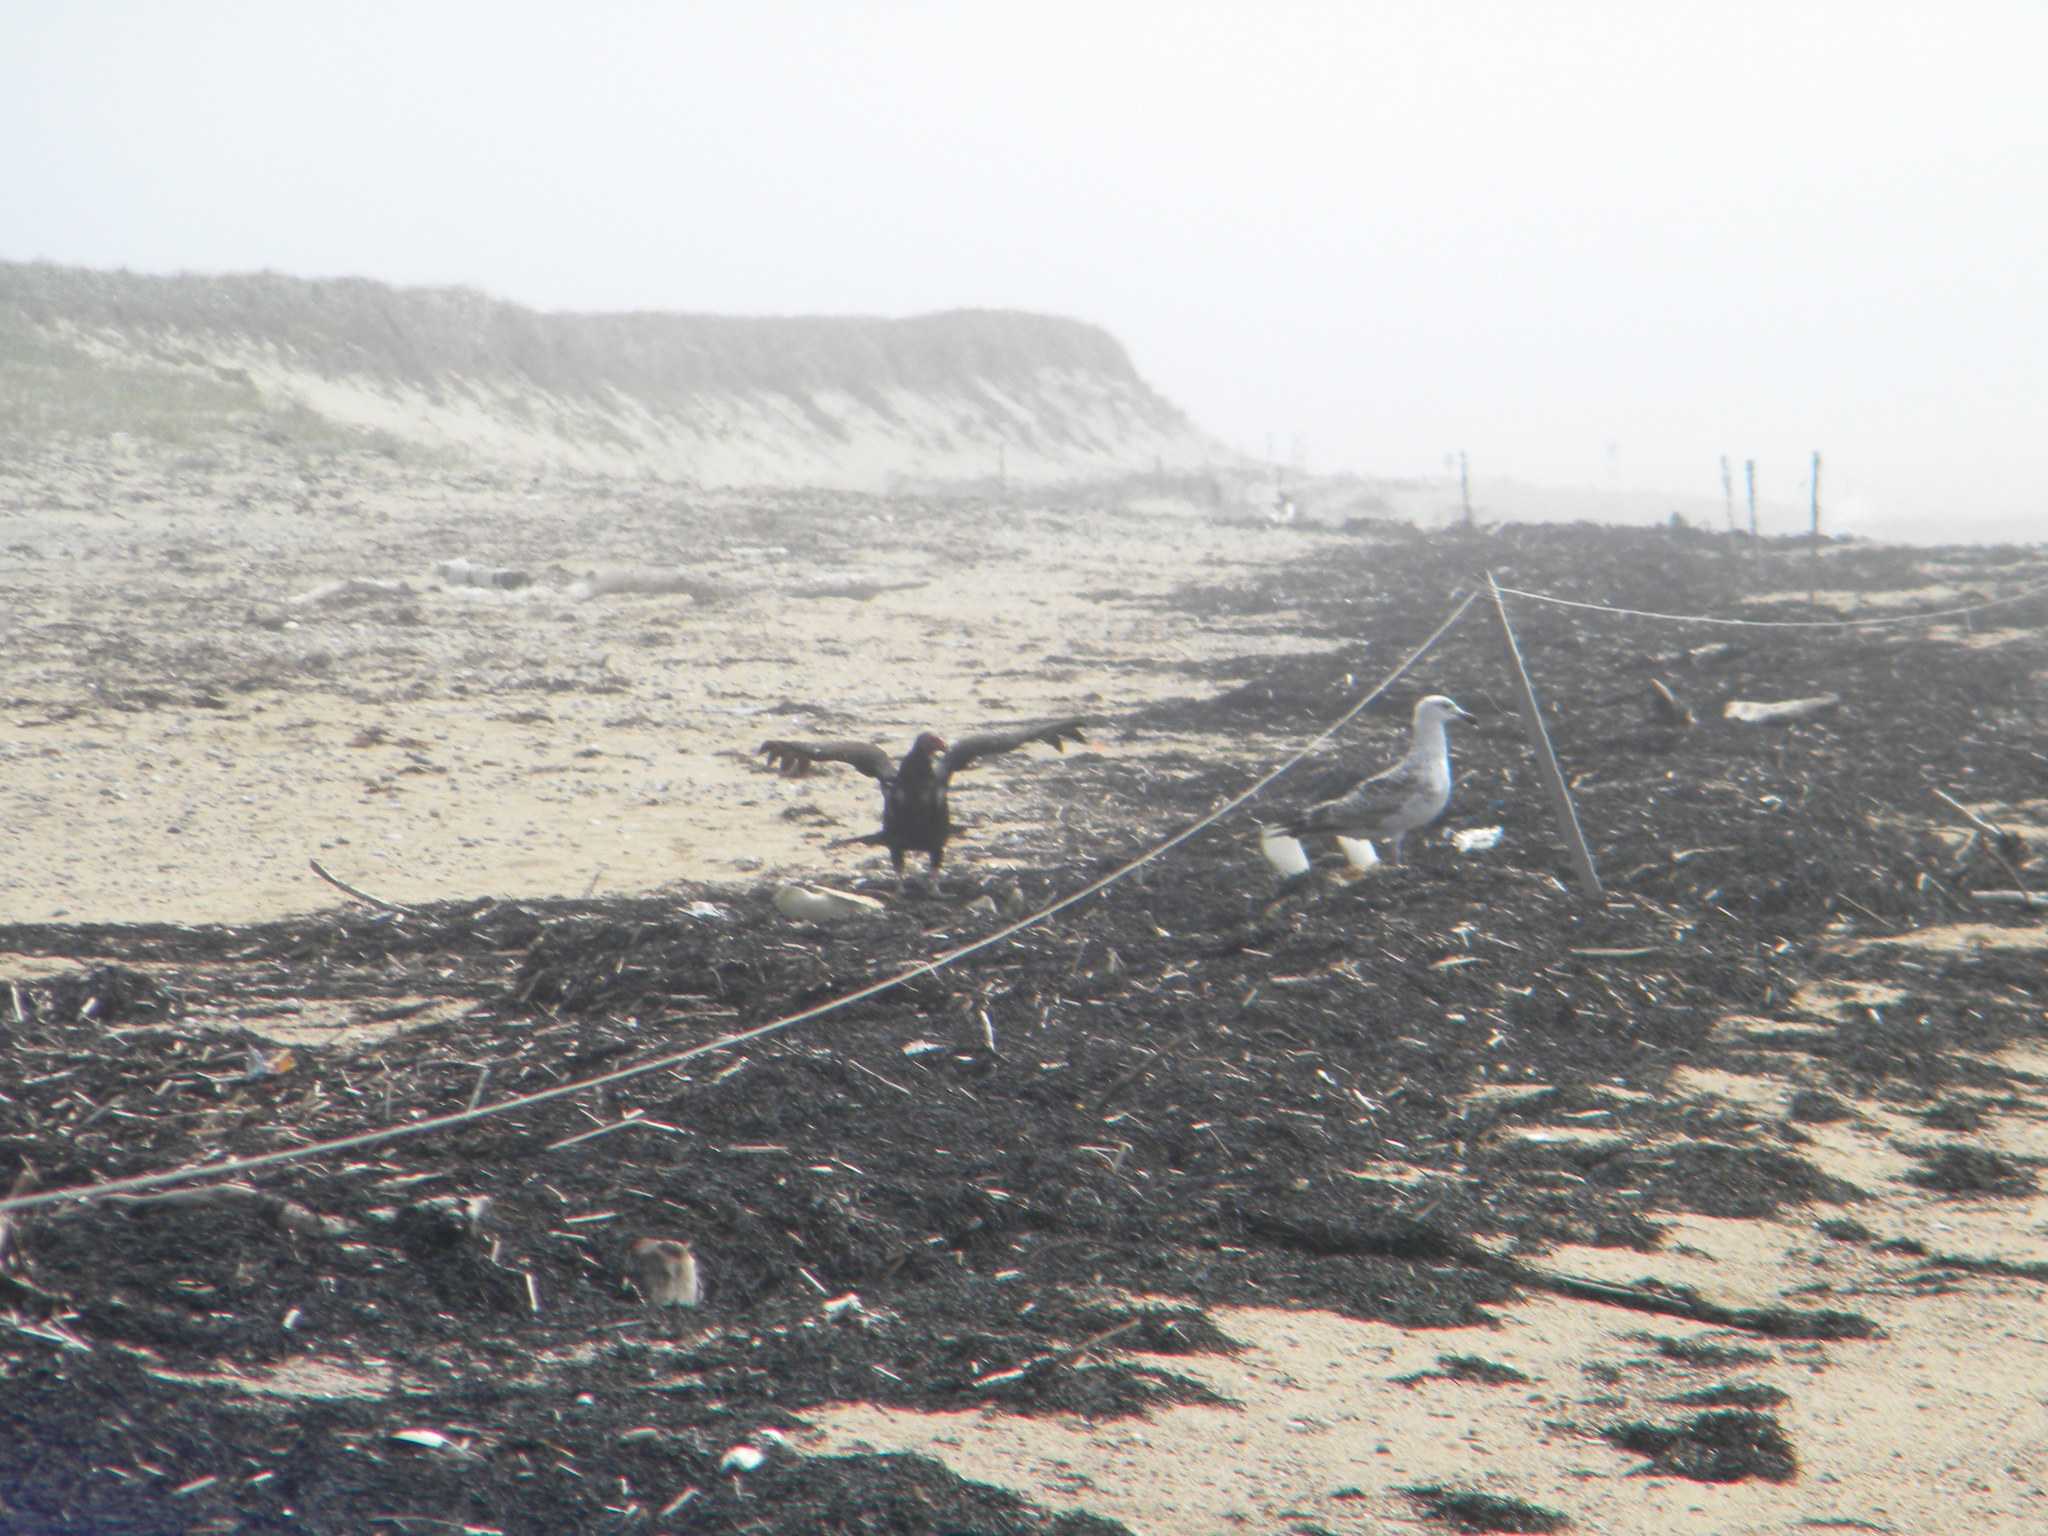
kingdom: Animalia
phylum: Chordata
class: Aves
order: Accipitriformes
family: Cathartidae
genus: Cathartes
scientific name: Cathartes aura
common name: Turkey vulture
